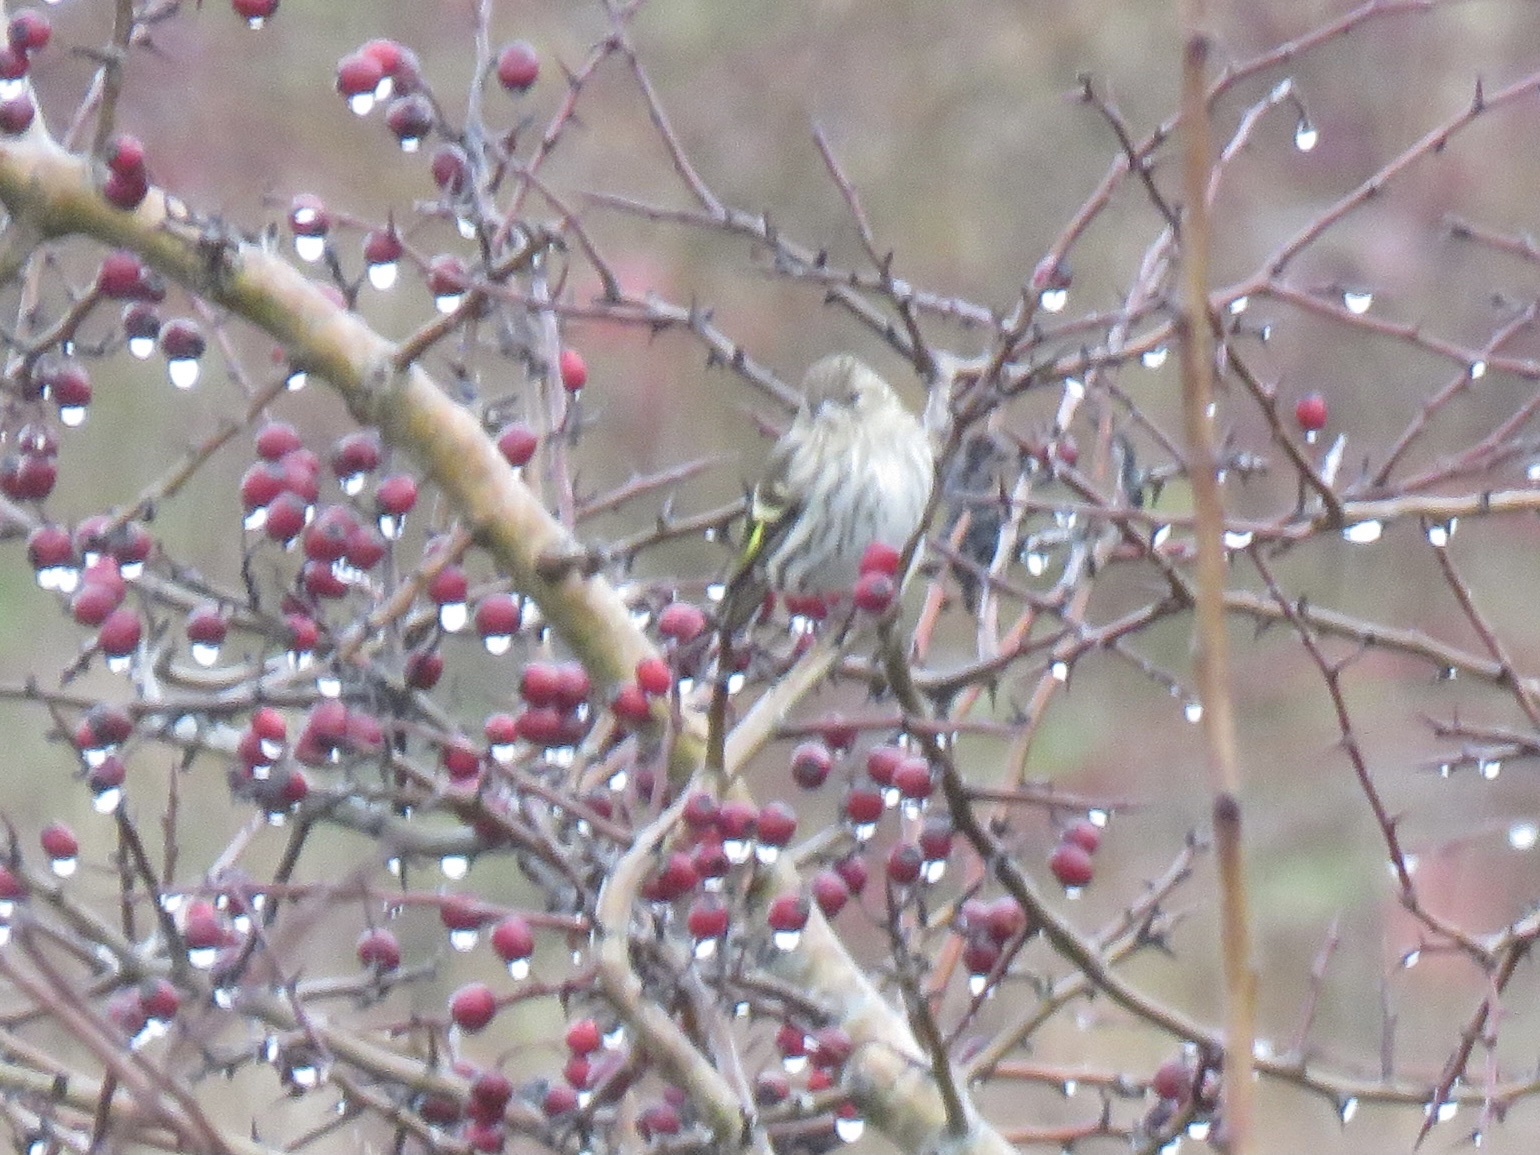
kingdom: Animalia
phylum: Chordata
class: Aves
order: Passeriformes
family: Fringillidae
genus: Spinus
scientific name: Spinus pinus
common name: Pine siskin
